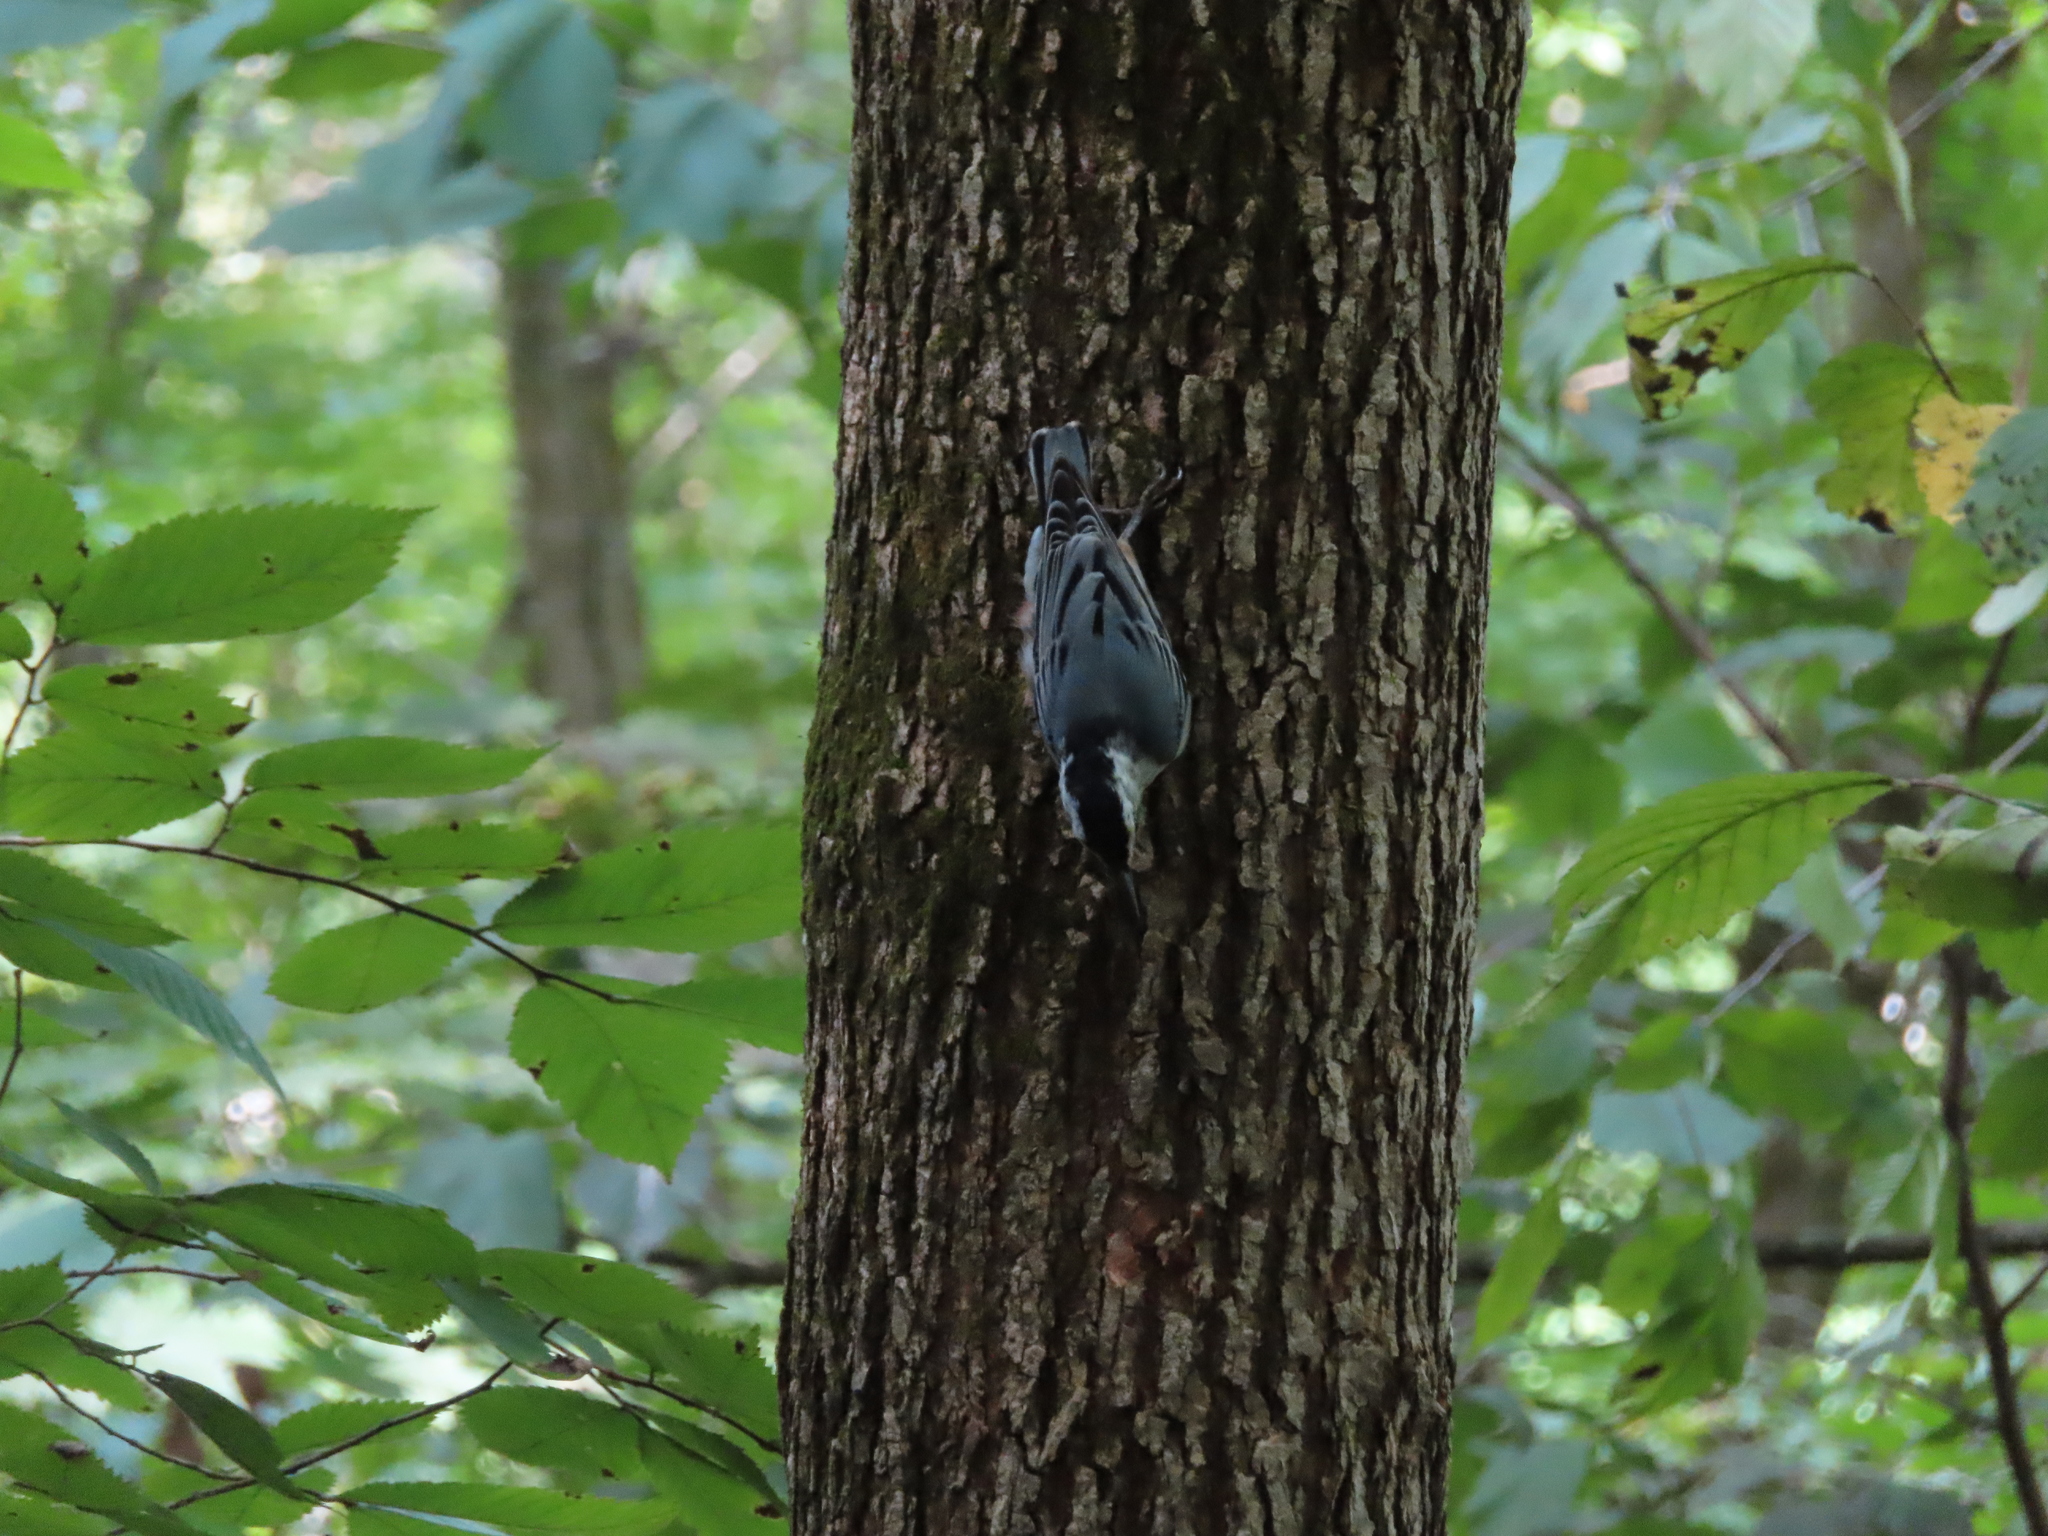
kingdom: Animalia
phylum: Chordata
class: Aves
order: Passeriformes
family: Sittidae
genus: Sitta
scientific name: Sitta carolinensis
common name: White-breasted nuthatch
